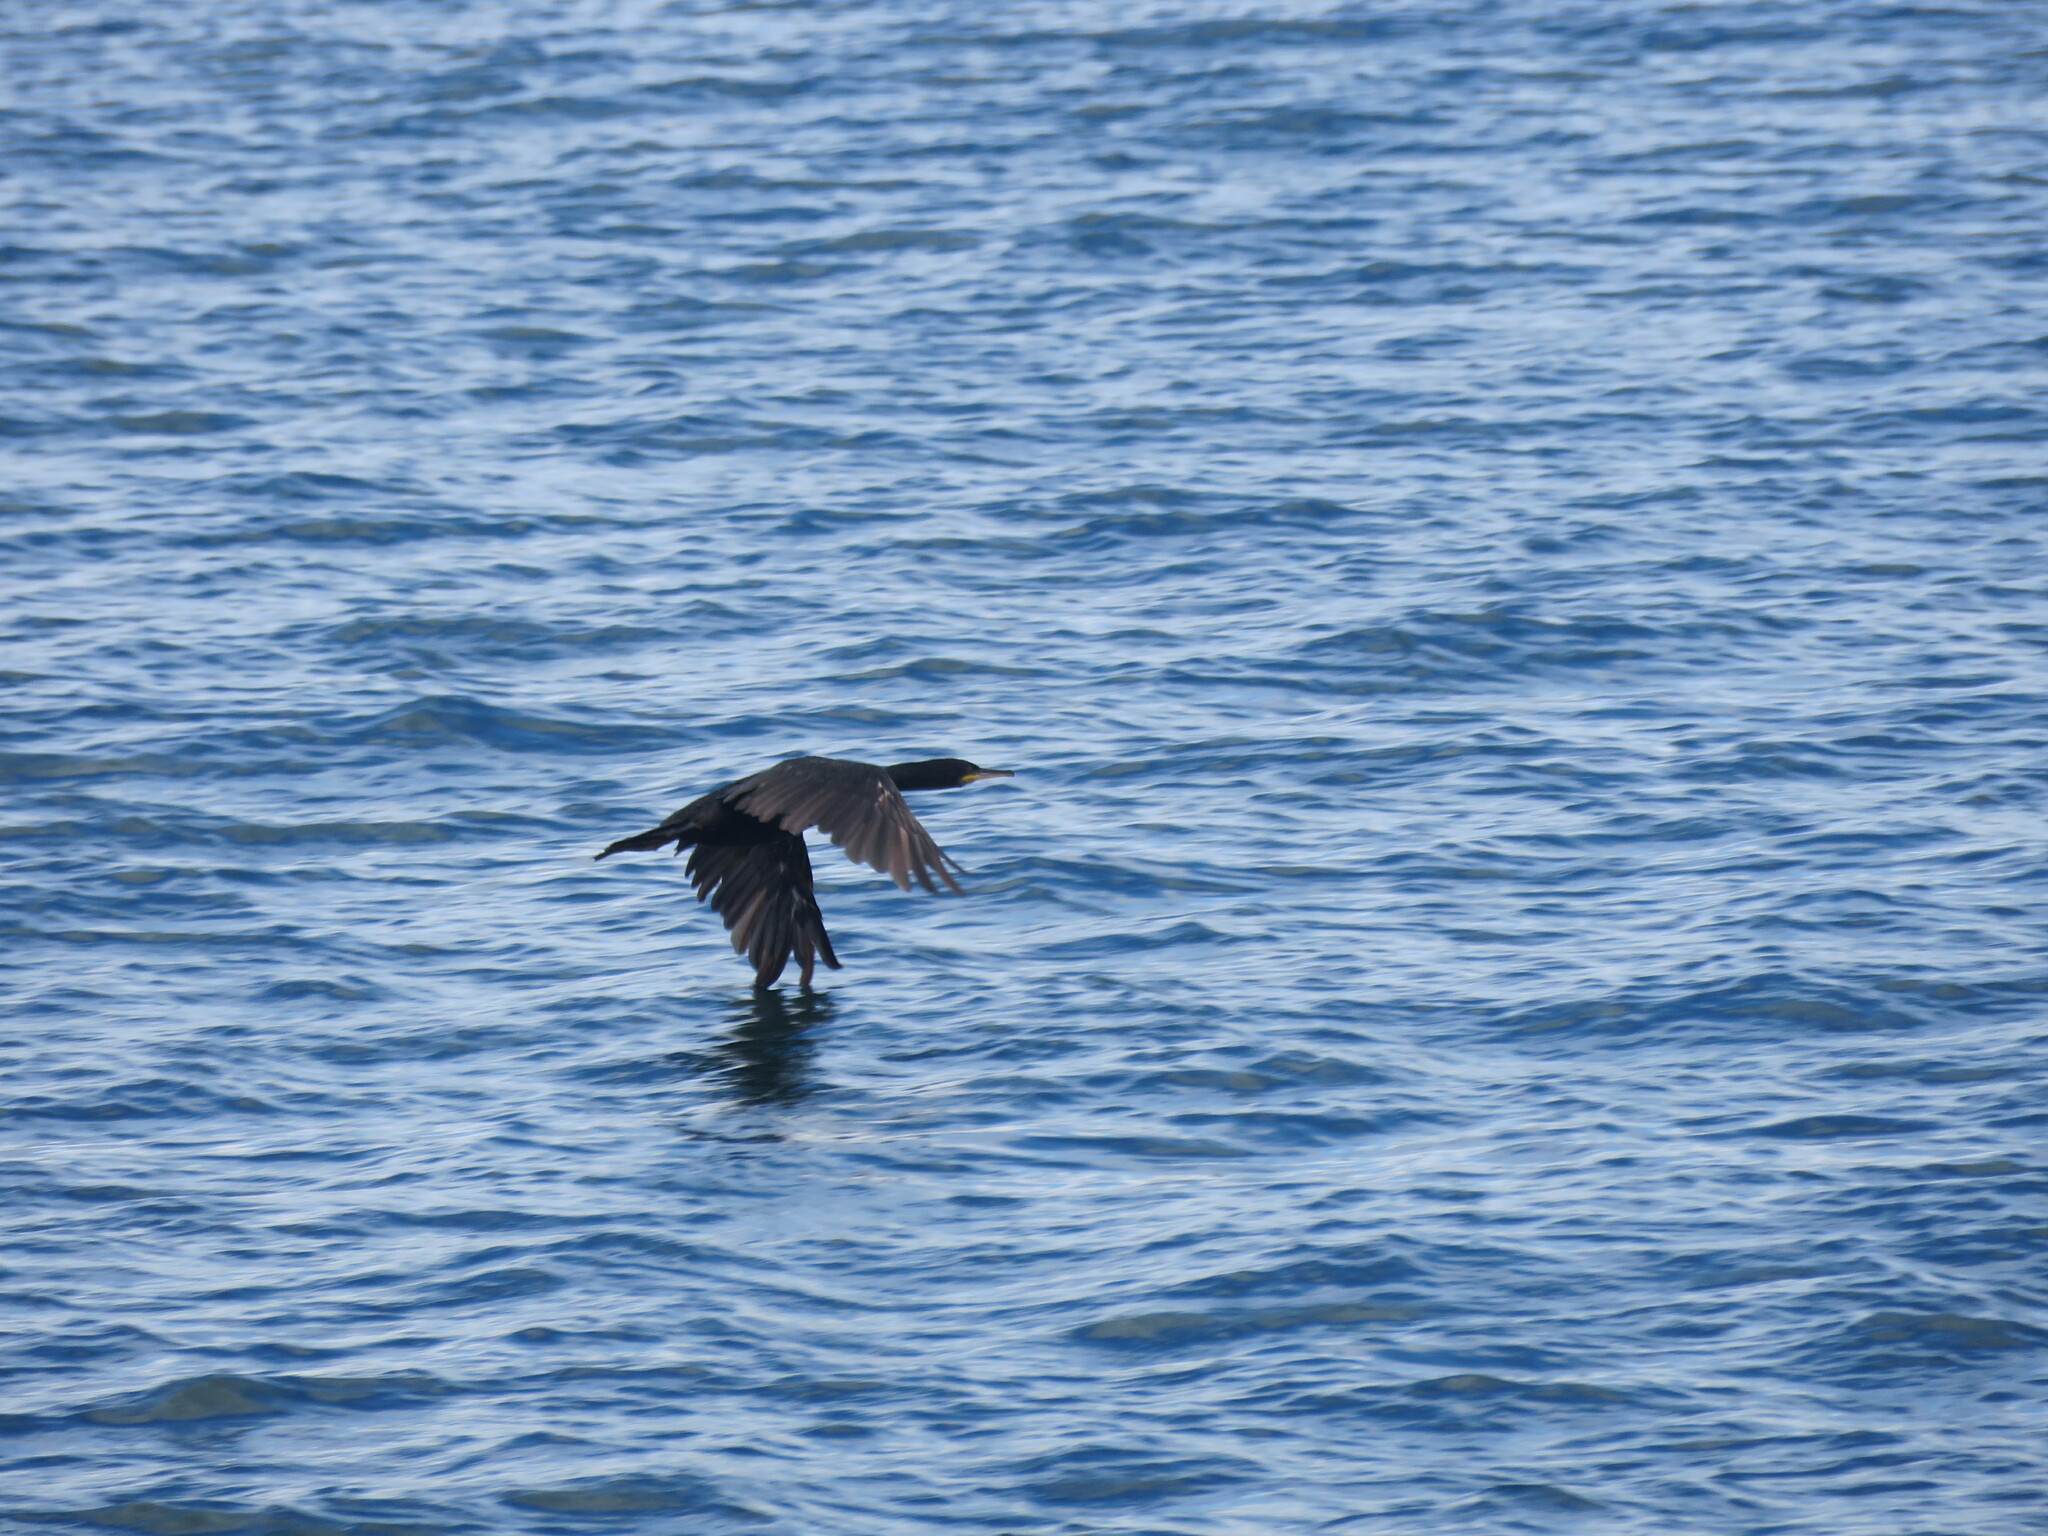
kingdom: Animalia
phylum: Chordata
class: Aves
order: Suliformes
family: Phalacrocoracidae
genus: Phalacrocorax
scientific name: Phalacrocorax aristotelis
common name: European shag
